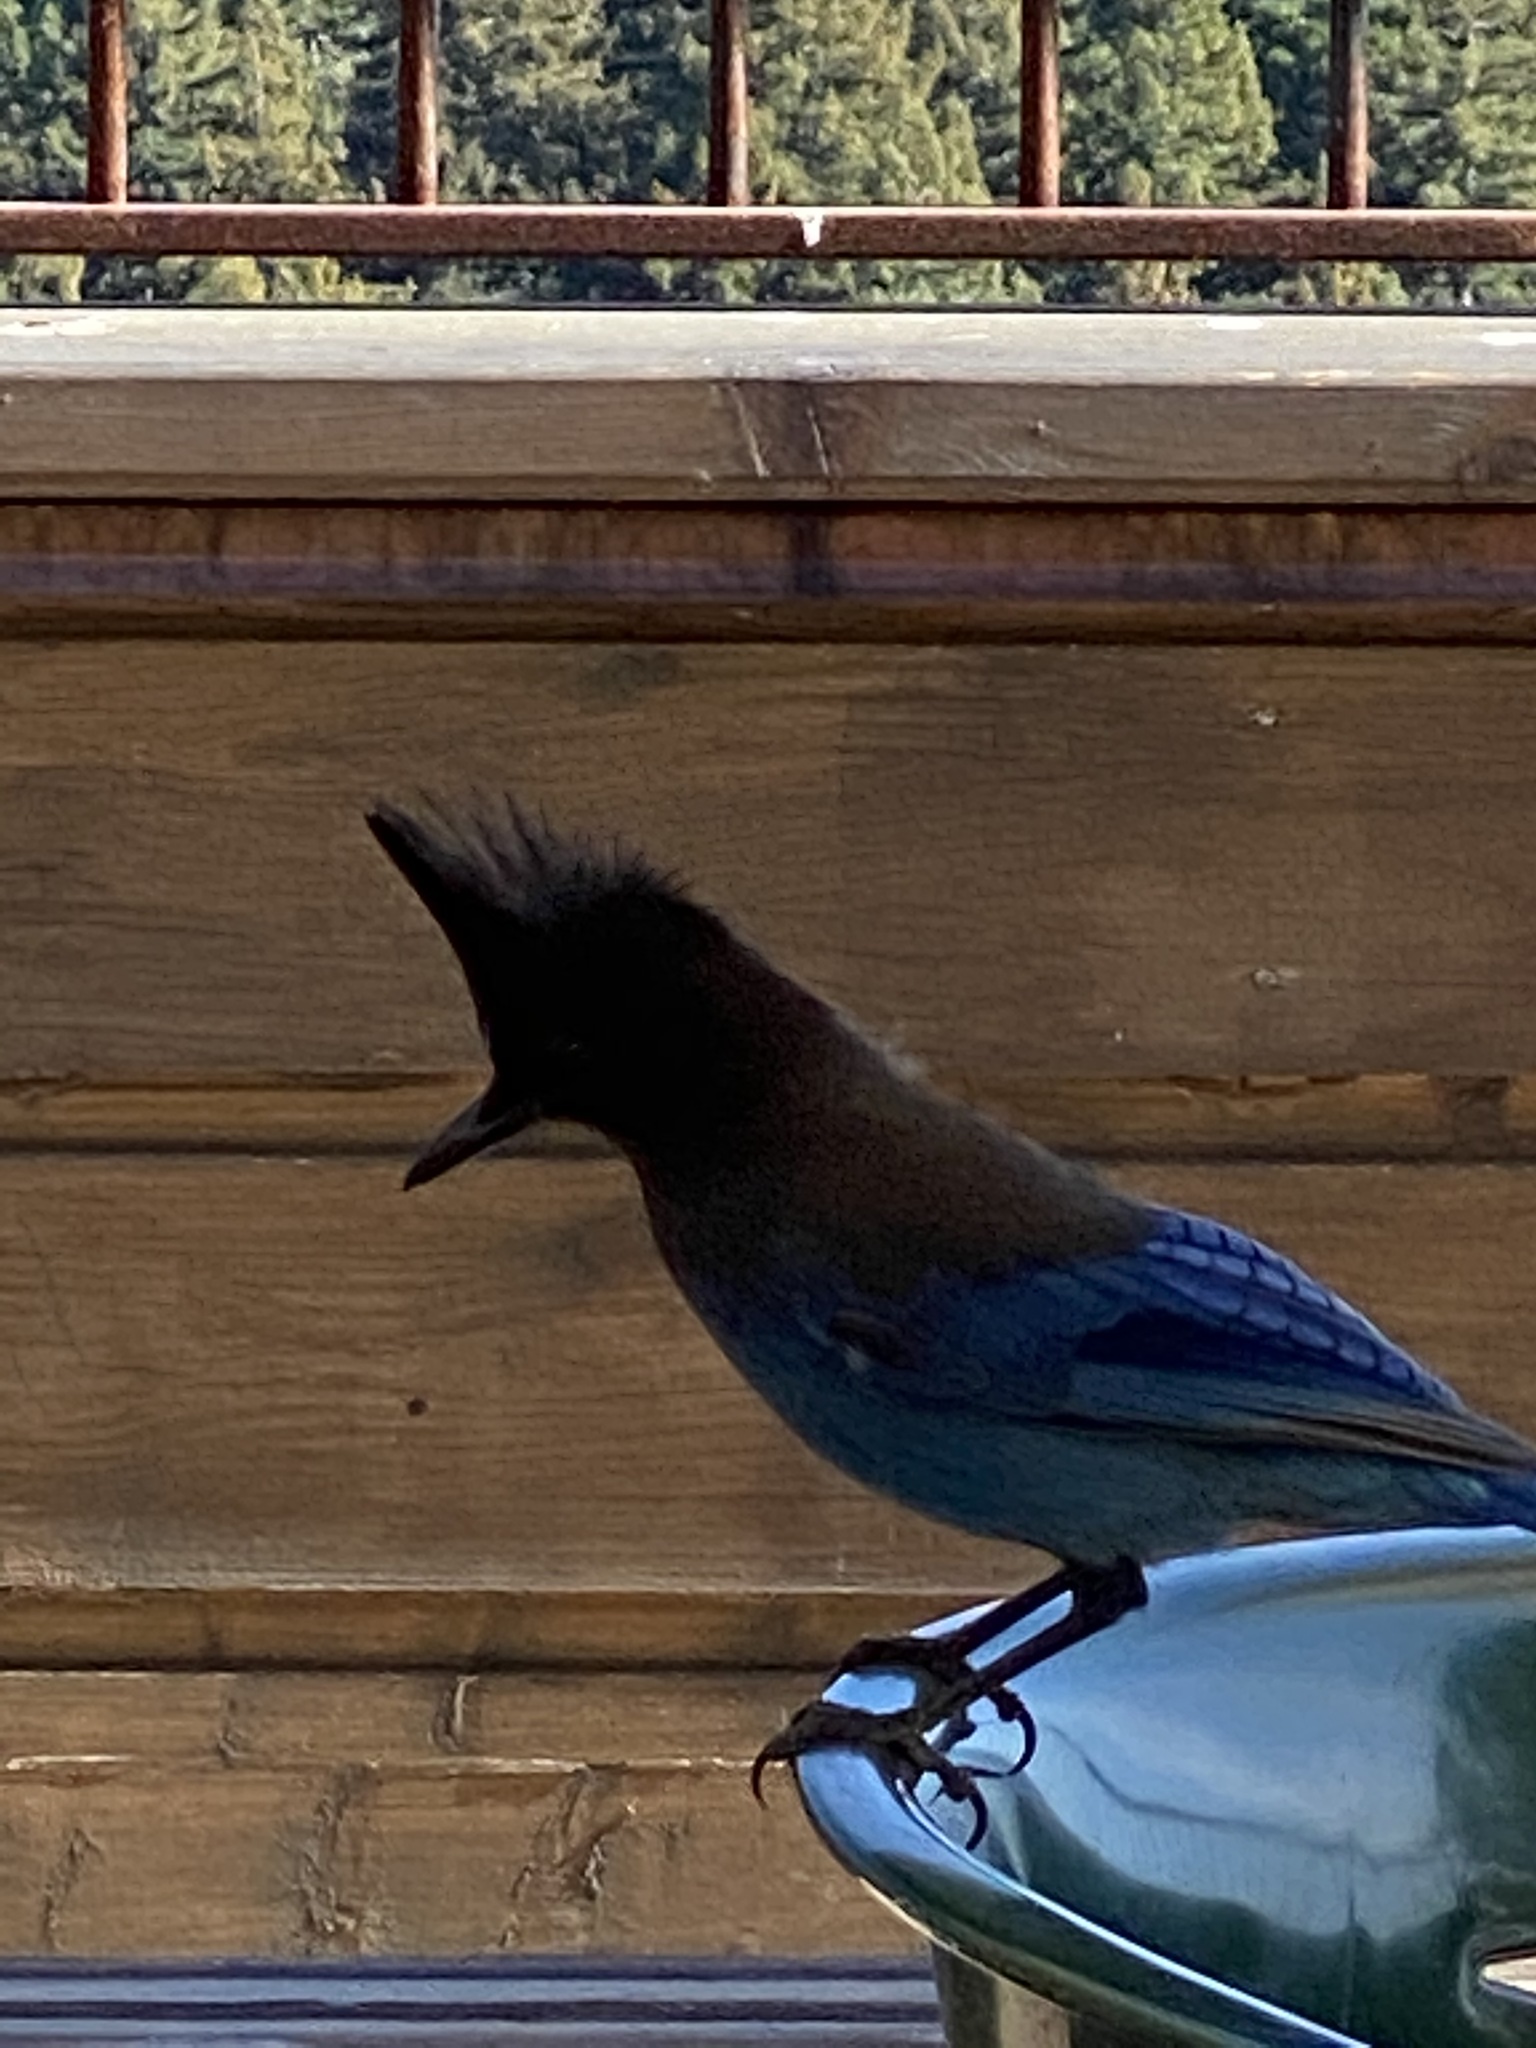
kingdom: Animalia
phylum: Chordata
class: Aves
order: Passeriformes
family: Corvidae
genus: Cyanocitta
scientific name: Cyanocitta stelleri
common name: Steller's jay
